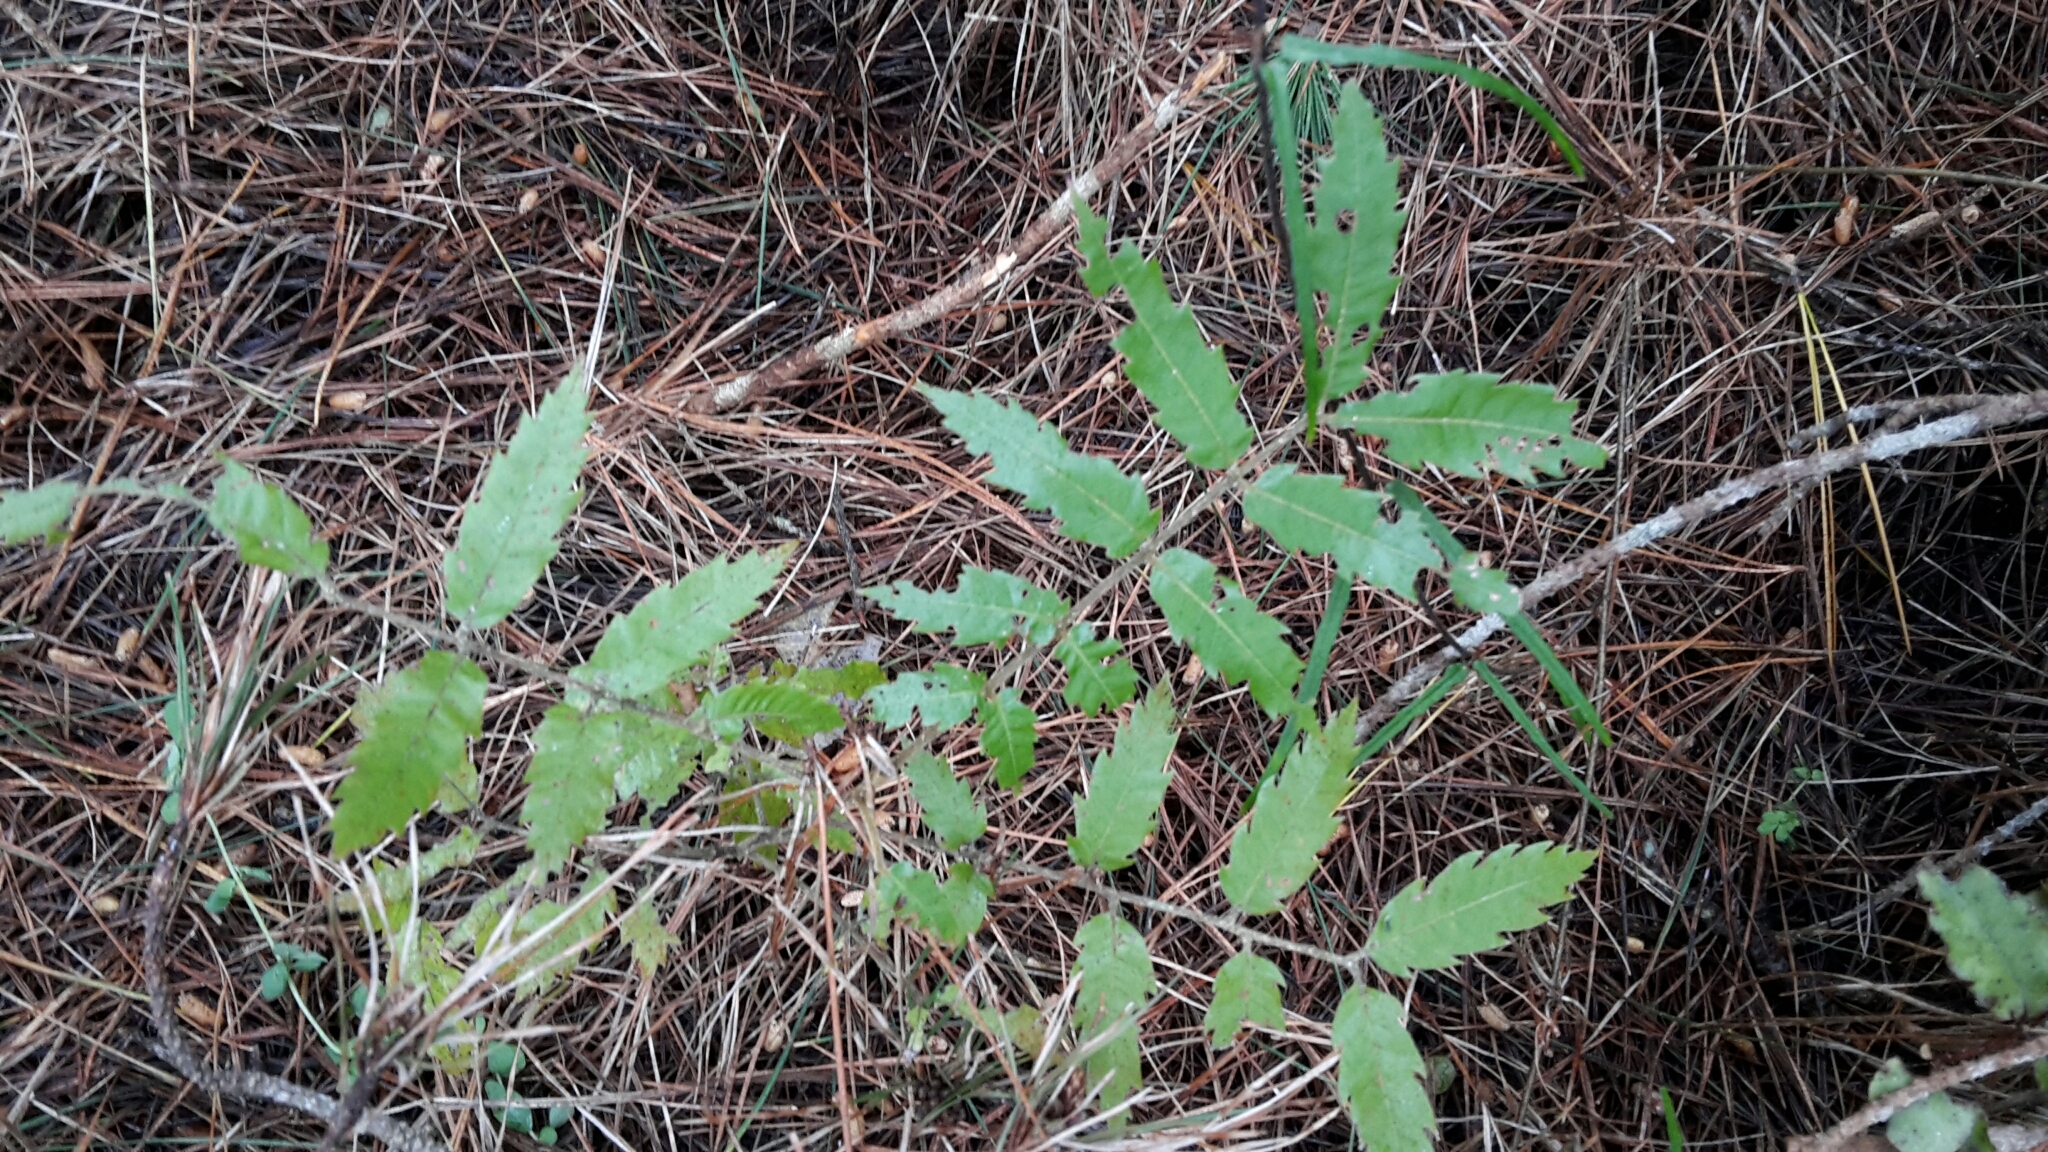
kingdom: Plantae
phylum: Tracheophyta
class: Magnoliopsida
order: Sapindales
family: Sapindaceae
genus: Alectryon
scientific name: Alectryon excelsus
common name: Three kings titoki
